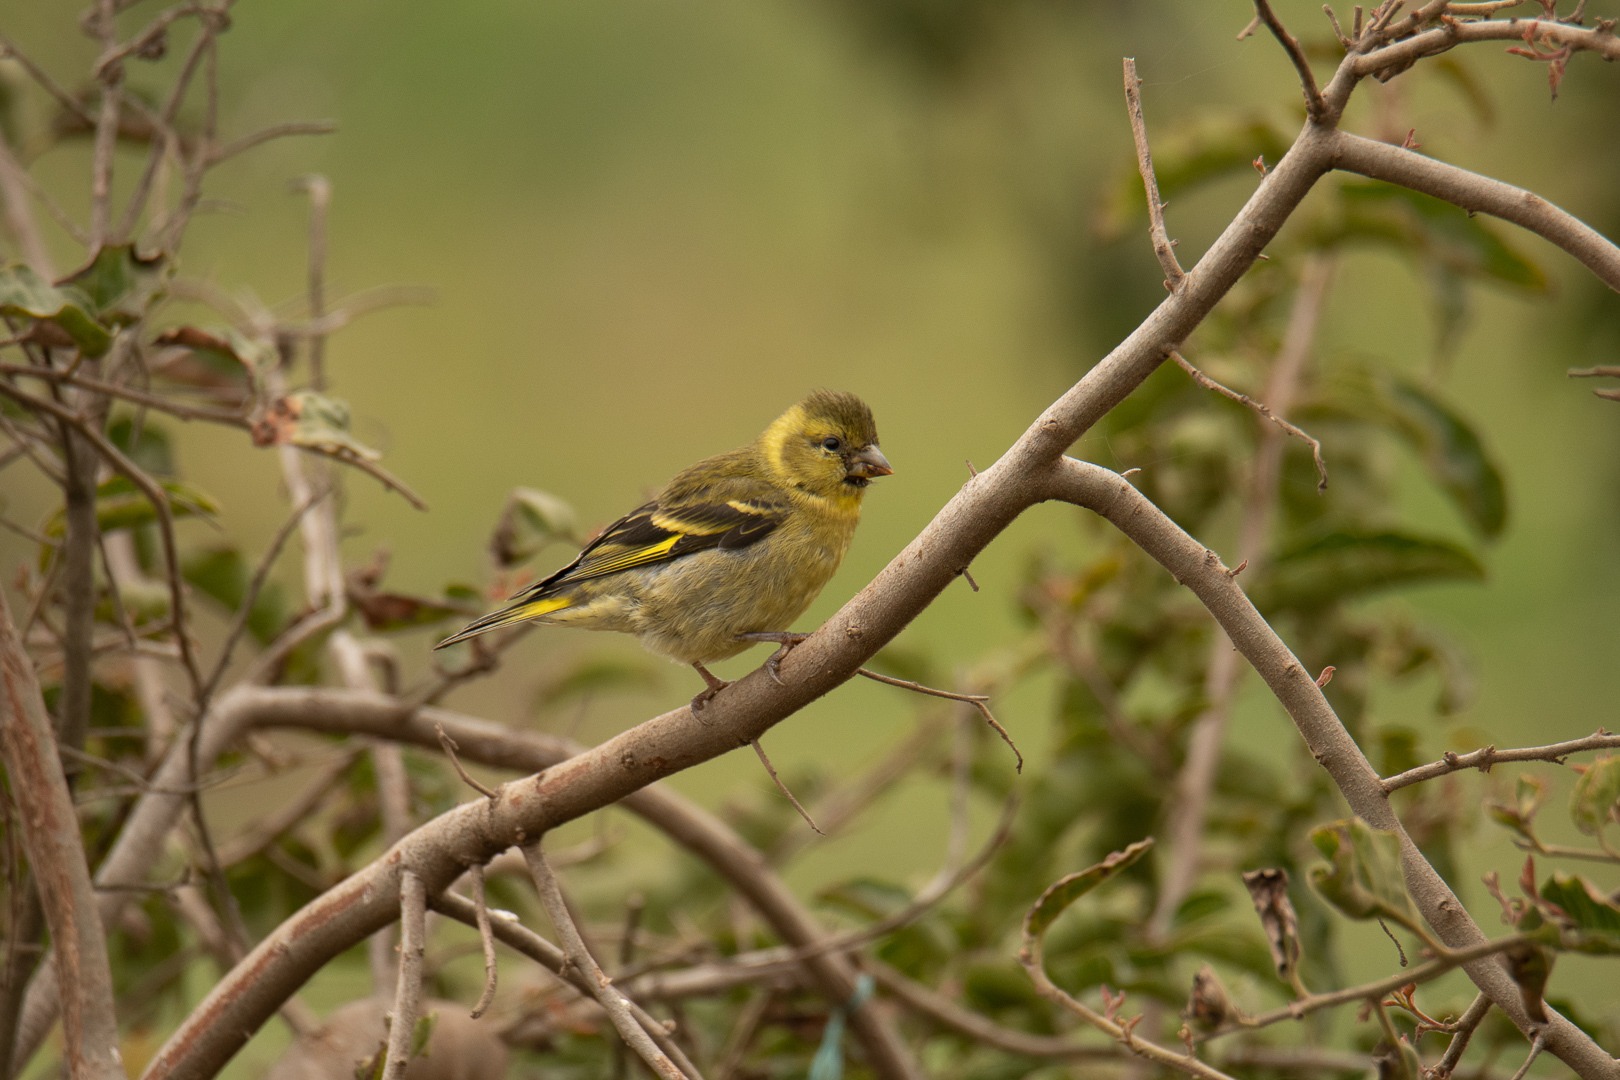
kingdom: Animalia
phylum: Chordata
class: Aves
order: Passeriformes
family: Fringillidae
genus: Spinus
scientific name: Spinus barbatus
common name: Black-chinned siskin
